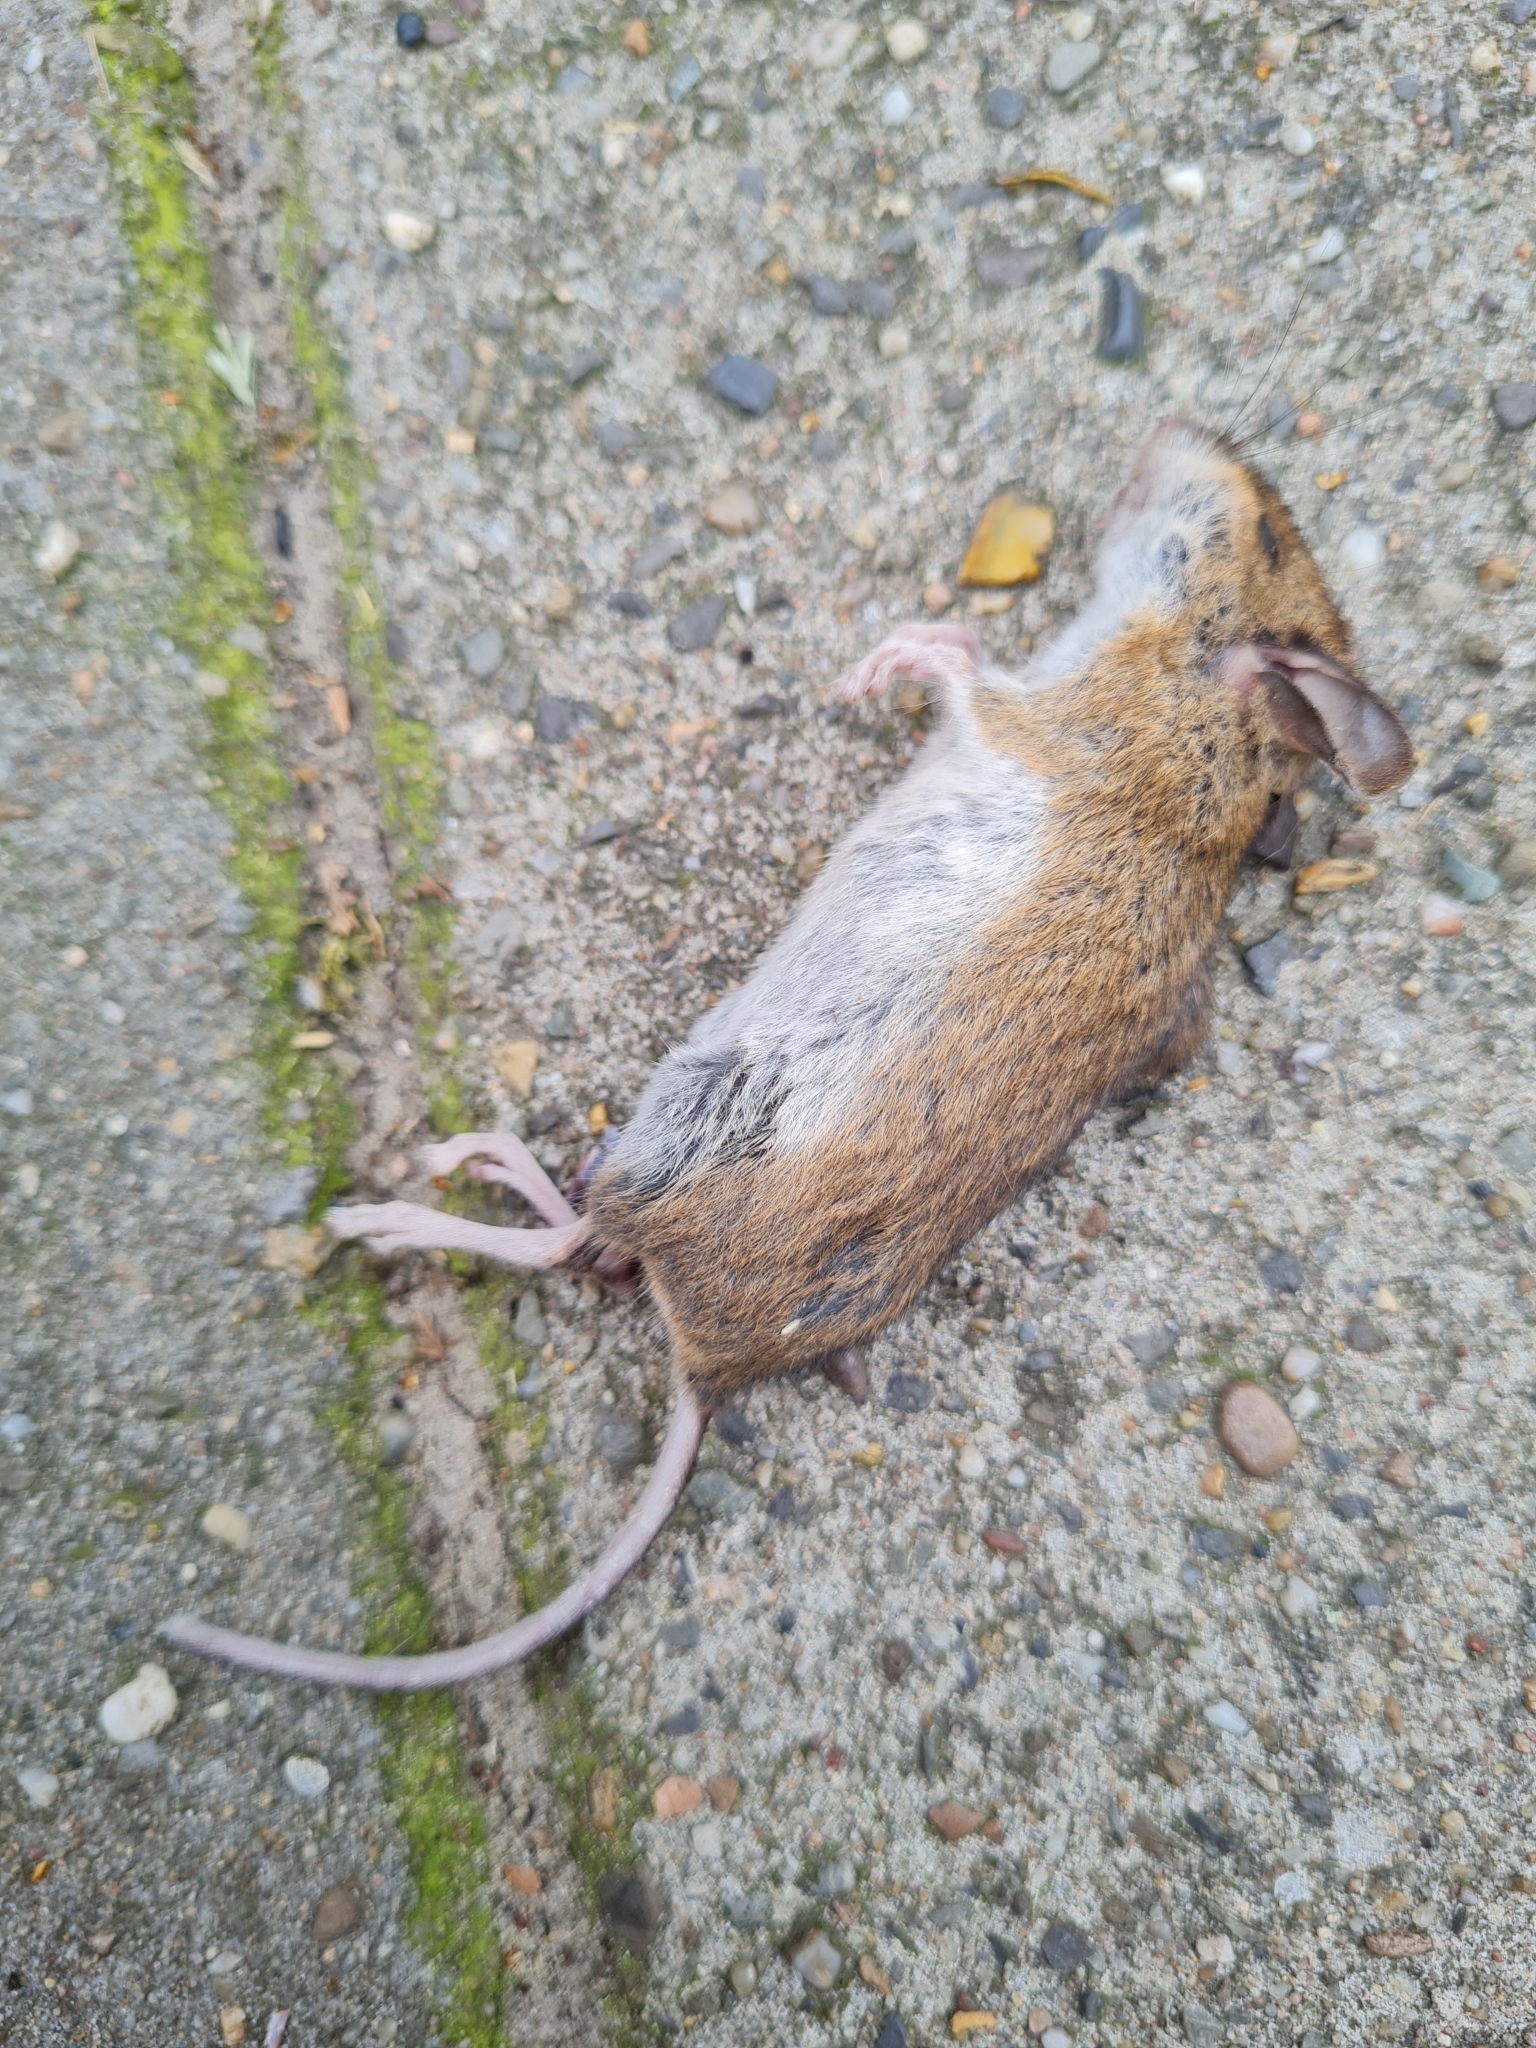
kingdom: Animalia
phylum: Chordata
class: Mammalia
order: Rodentia
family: Muridae
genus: Apodemus
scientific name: Apodemus sylvaticus
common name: Wood mouse
